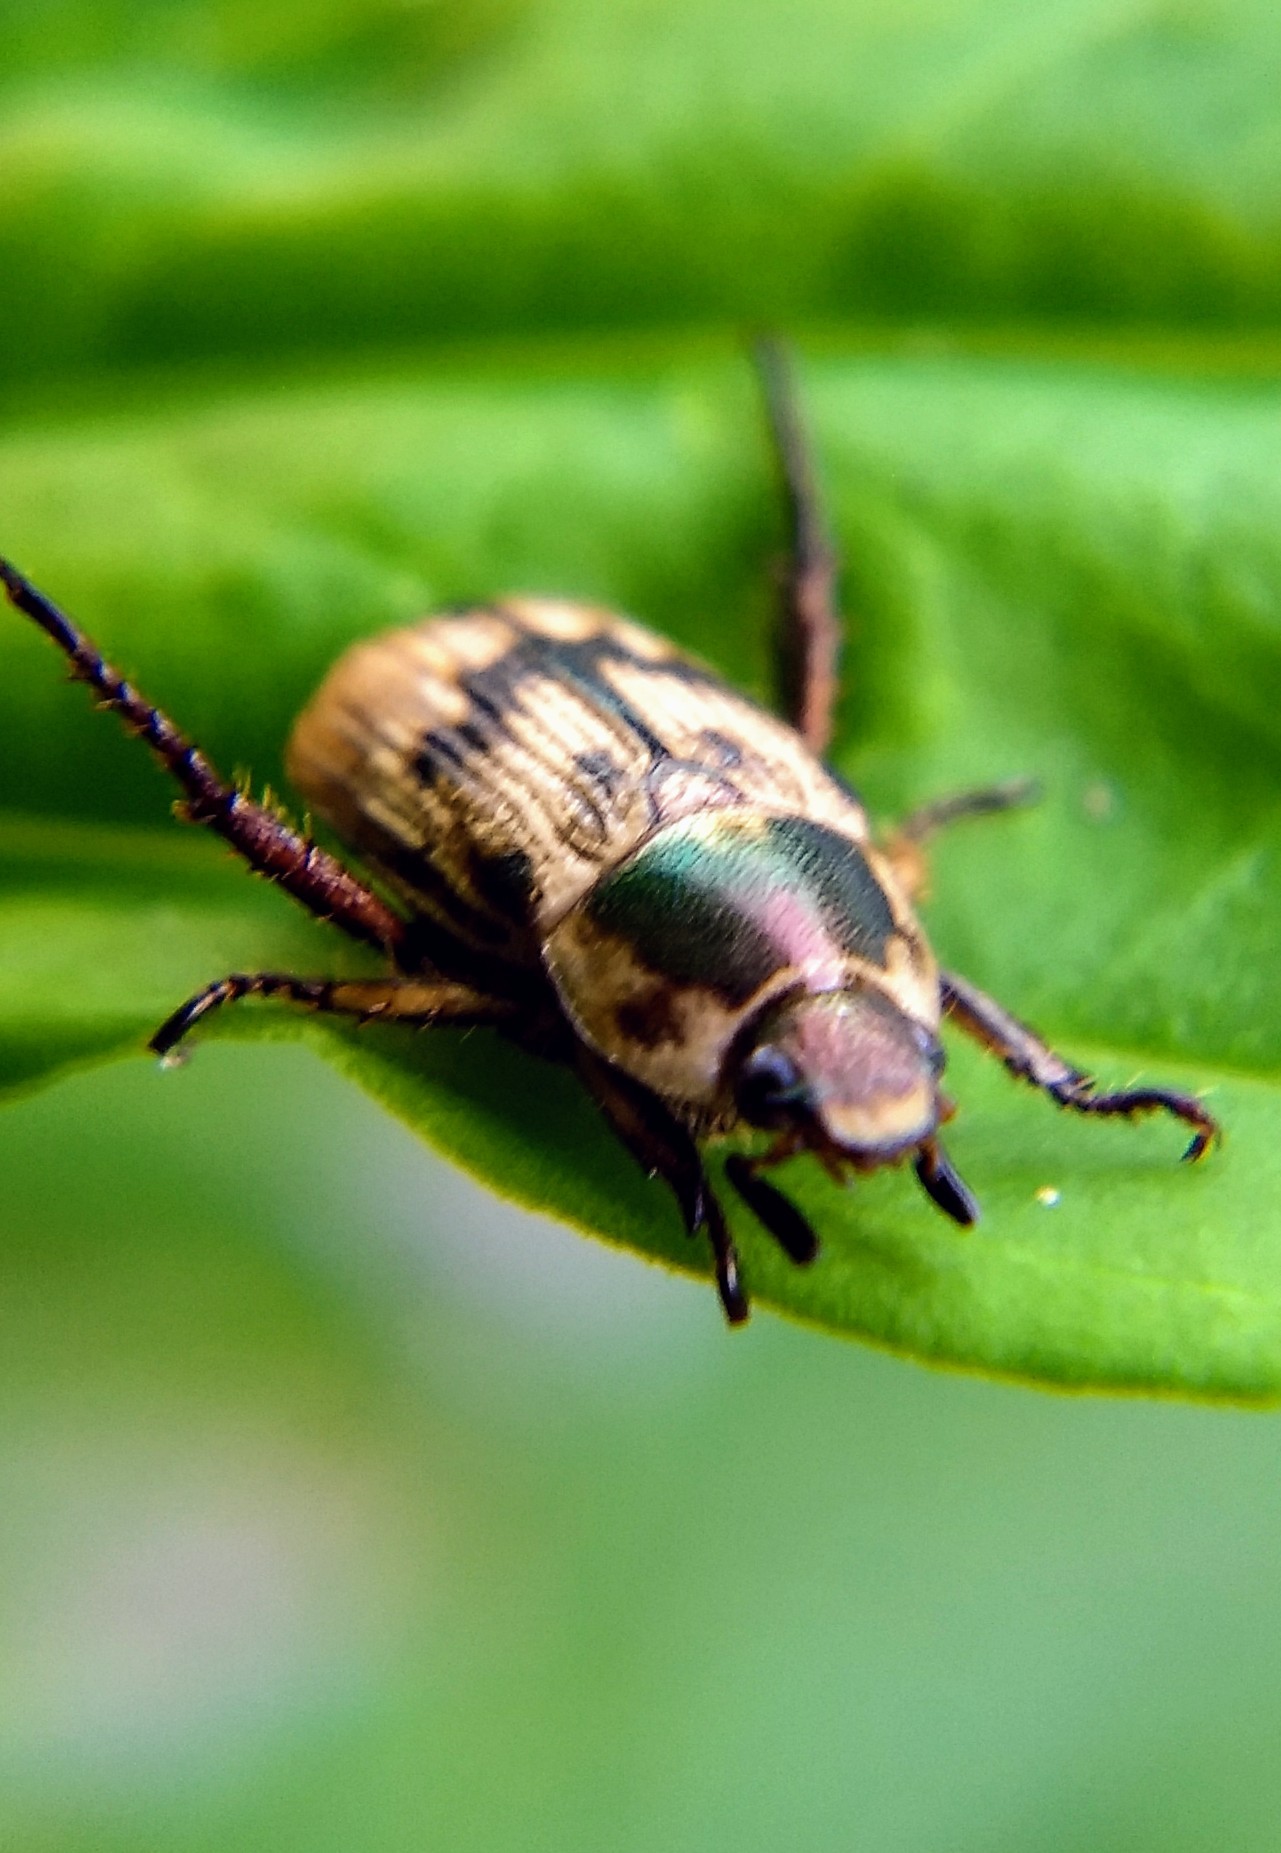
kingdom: Animalia
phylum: Arthropoda
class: Insecta
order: Coleoptera
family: Scarabaeidae
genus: Exomala
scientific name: Exomala orientalis
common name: Oriental beetle
